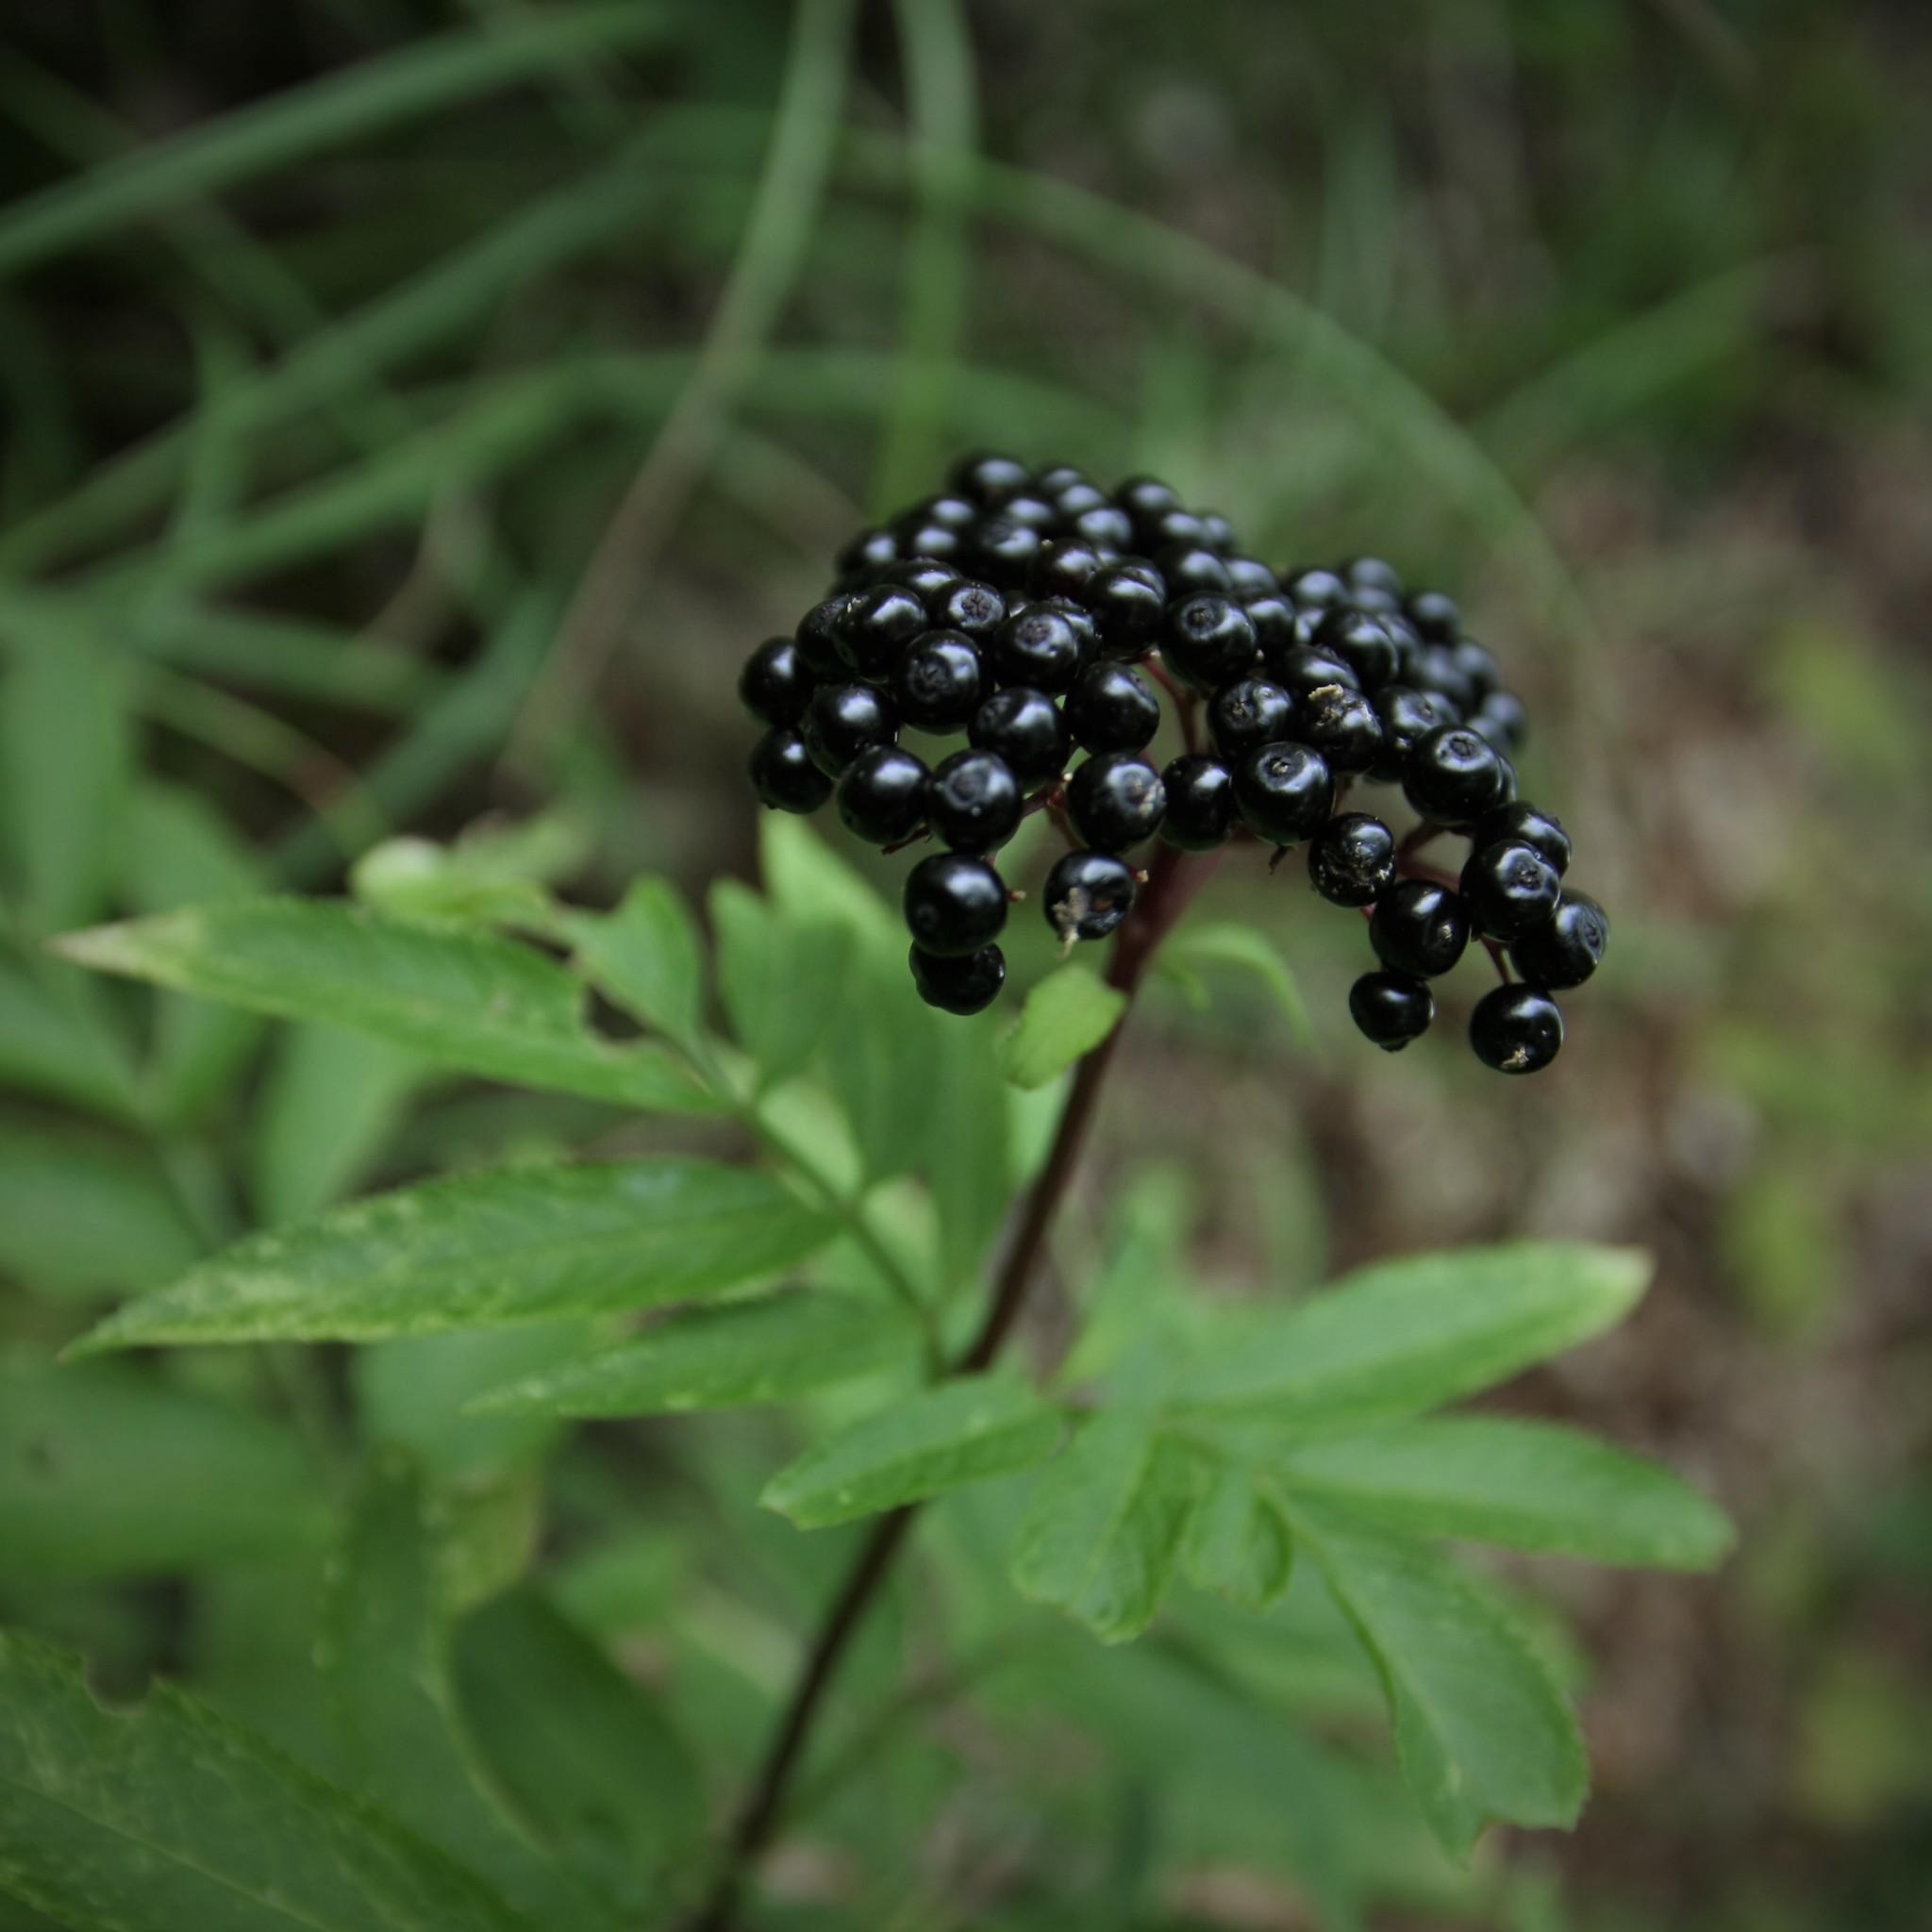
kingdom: Plantae
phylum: Tracheophyta
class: Magnoliopsida
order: Dipsacales
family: Viburnaceae
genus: Sambucus
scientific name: Sambucus ebulus
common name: Dwarf elder
